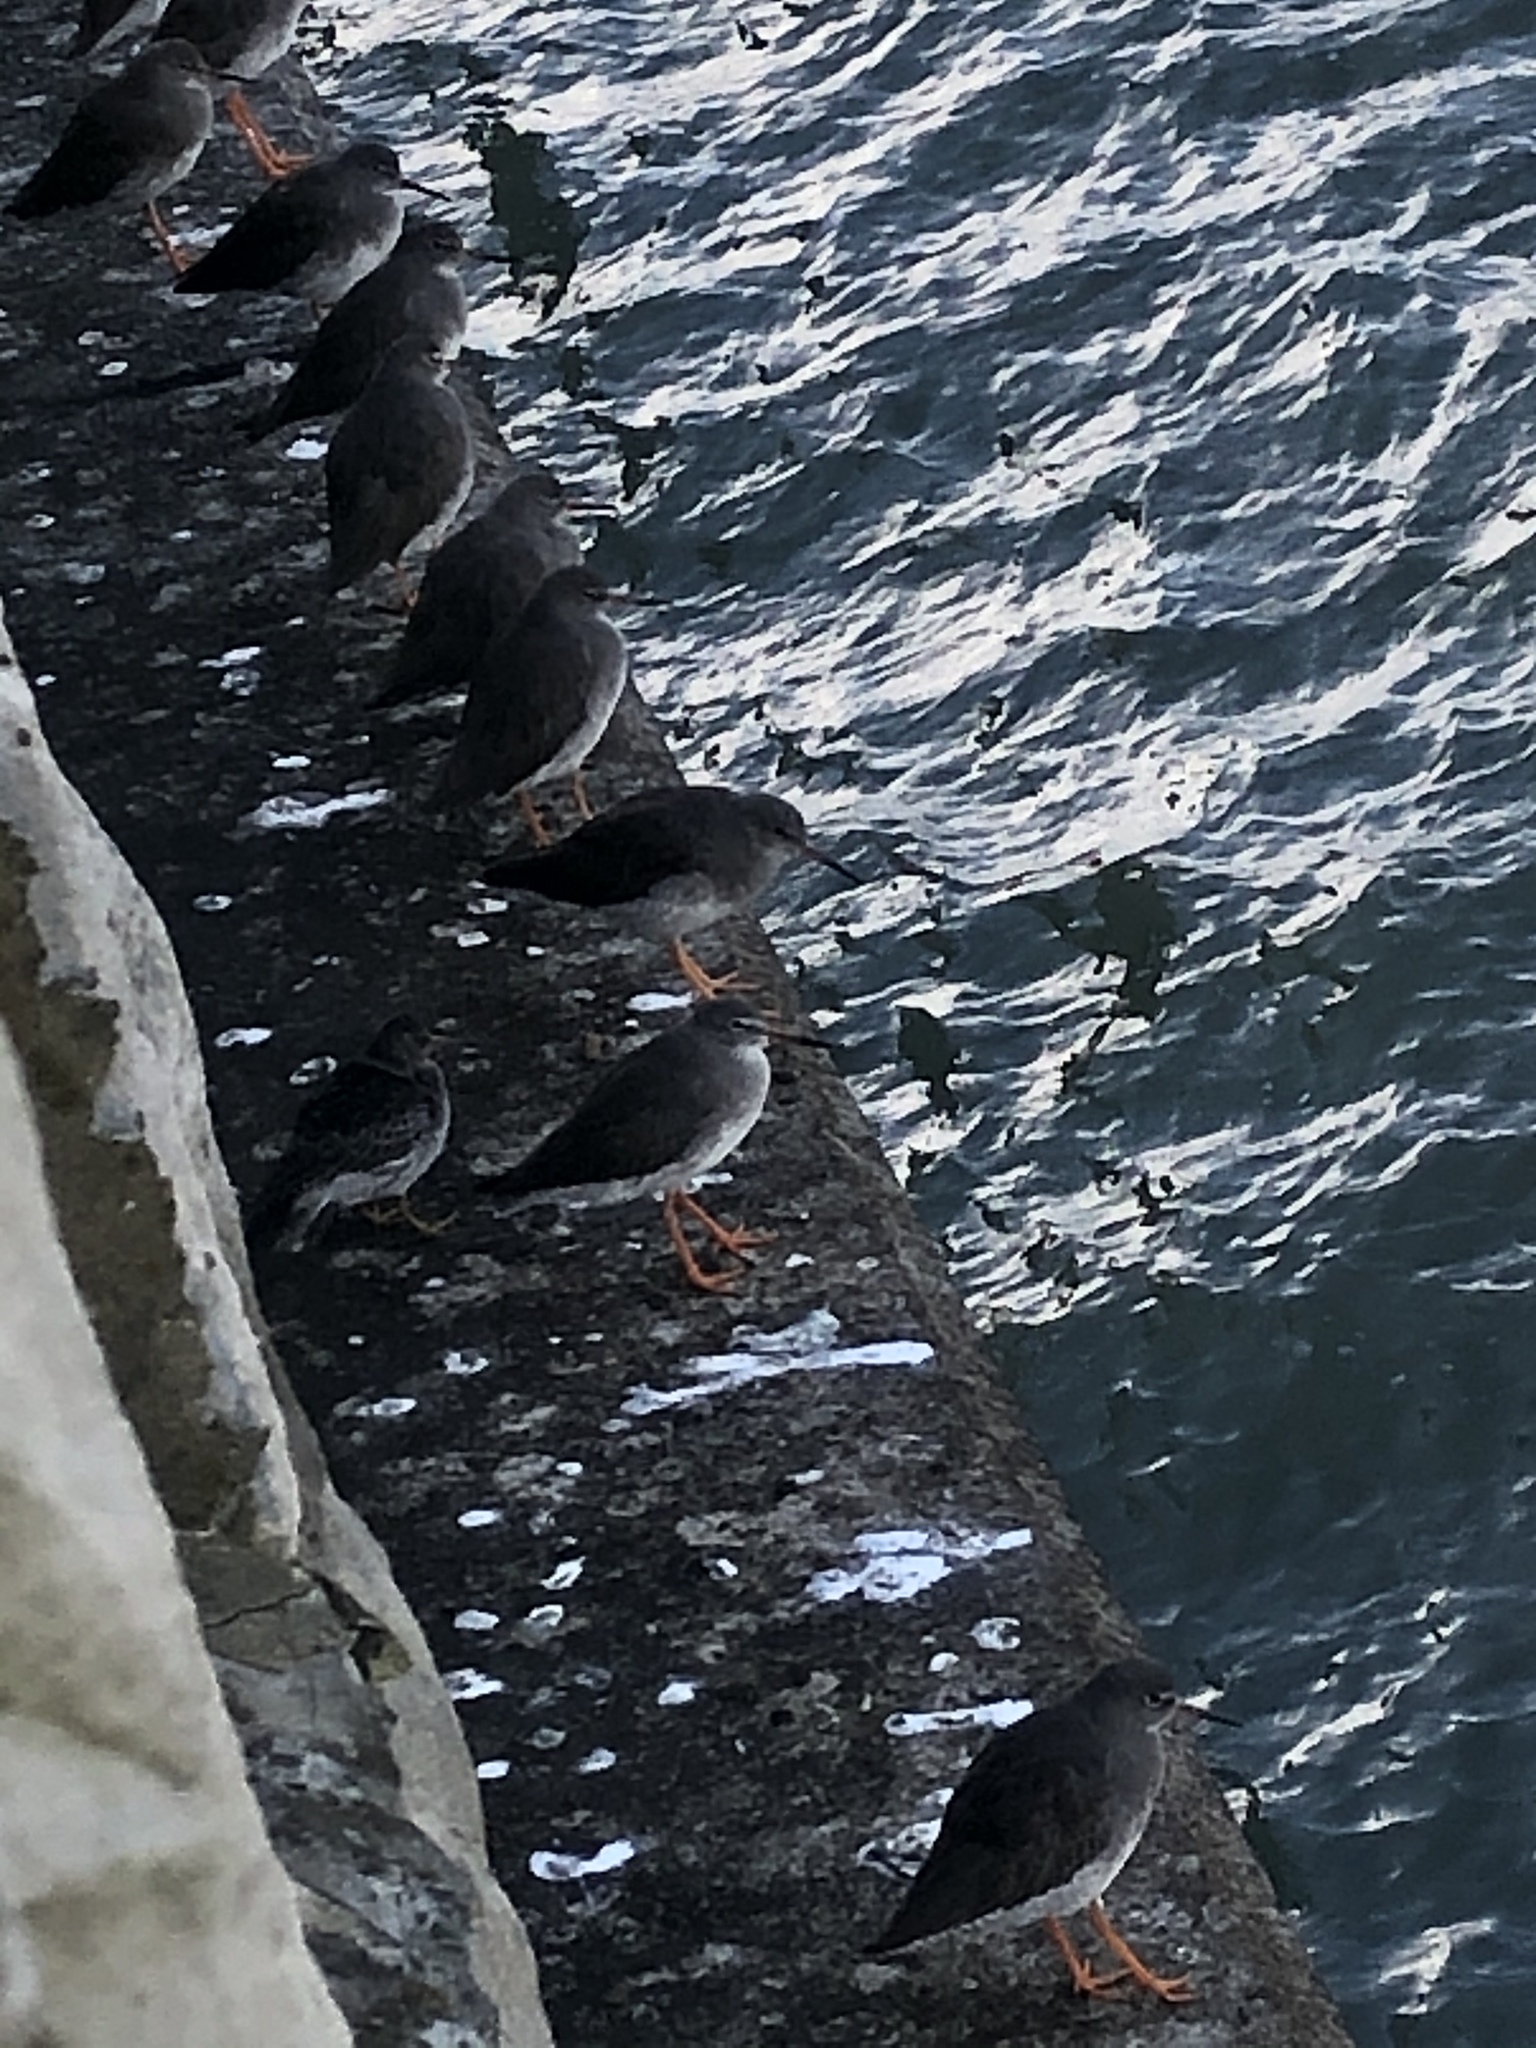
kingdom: Animalia
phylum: Chordata
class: Aves
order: Charadriiformes
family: Scolopacidae
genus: Tringa
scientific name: Tringa totanus
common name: Common redshank
